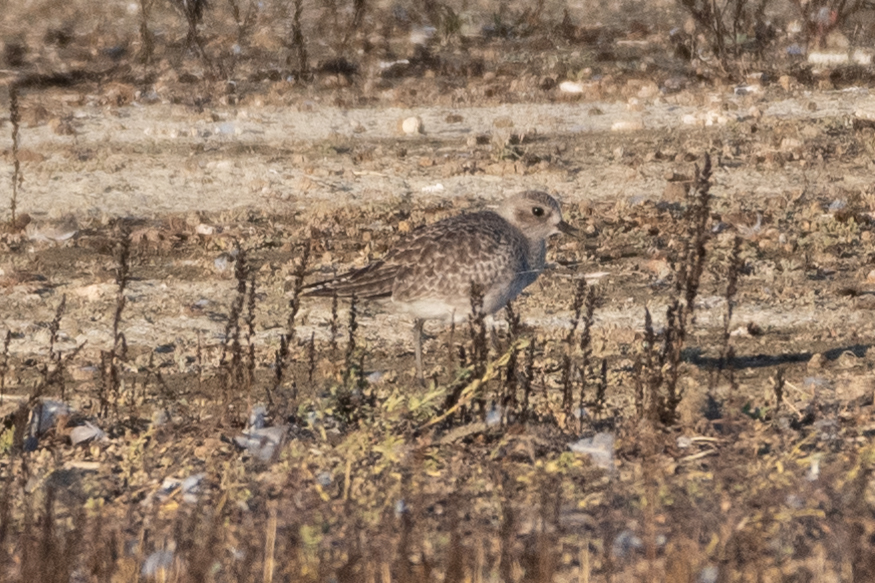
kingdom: Animalia
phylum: Chordata
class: Aves
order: Charadriiformes
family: Charadriidae
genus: Pluvialis
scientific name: Pluvialis squatarola
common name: Grey plover
